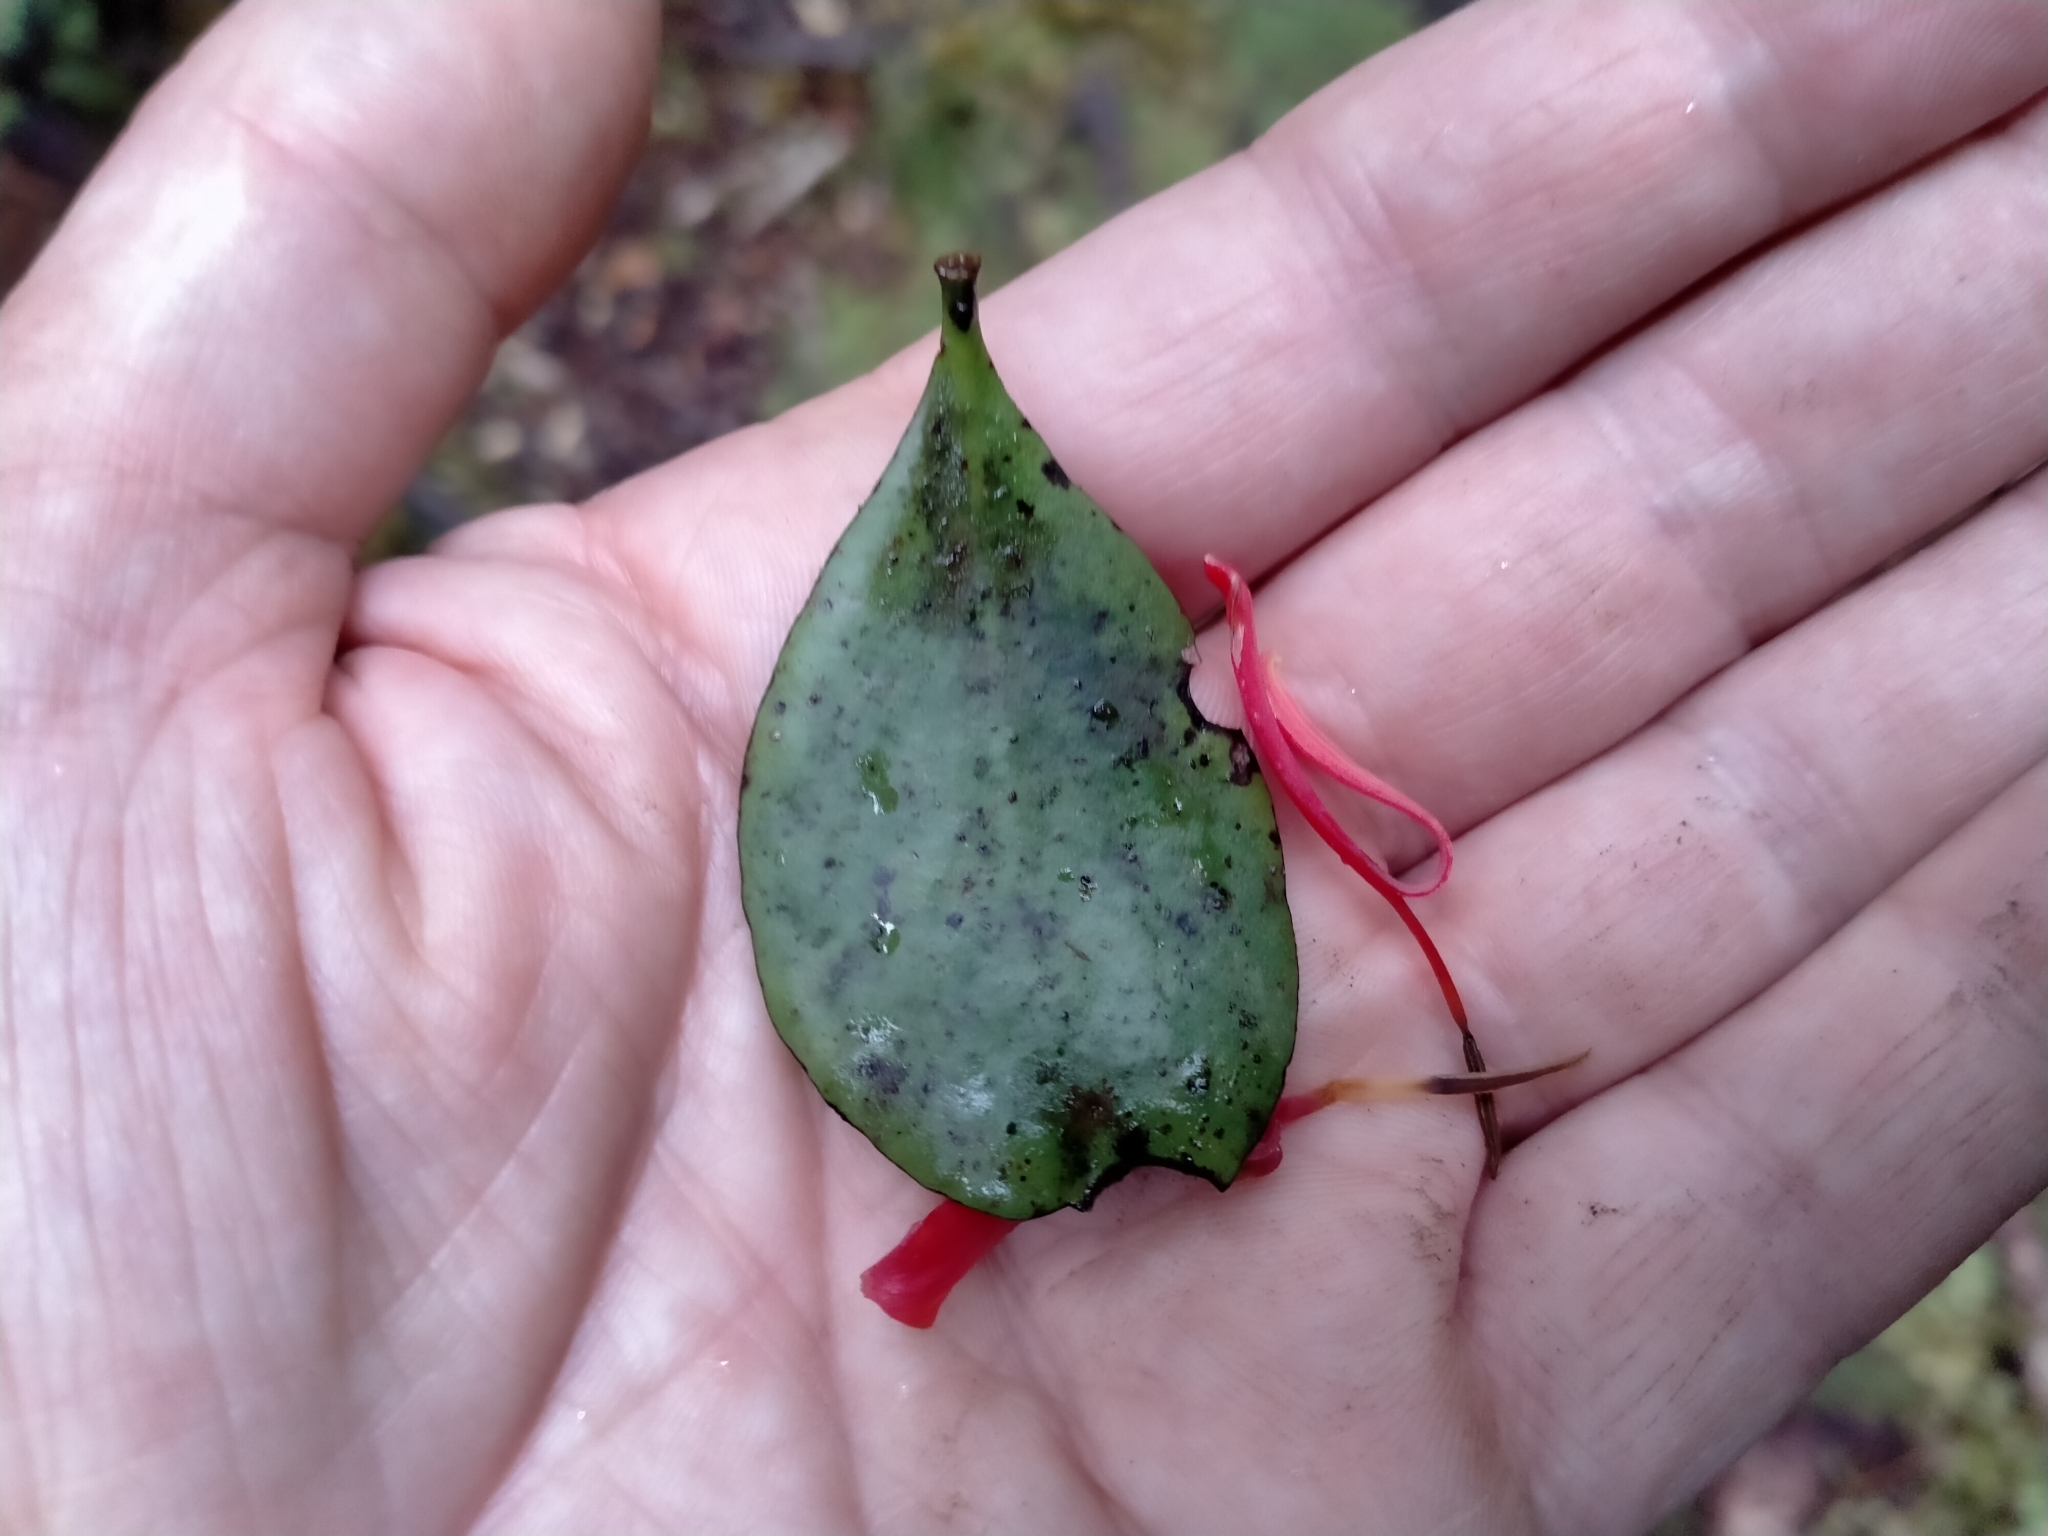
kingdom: Plantae
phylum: Tracheophyta
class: Magnoliopsida
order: Santalales
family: Loranthaceae
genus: Peraxilla
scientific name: Peraxilla colensoi
